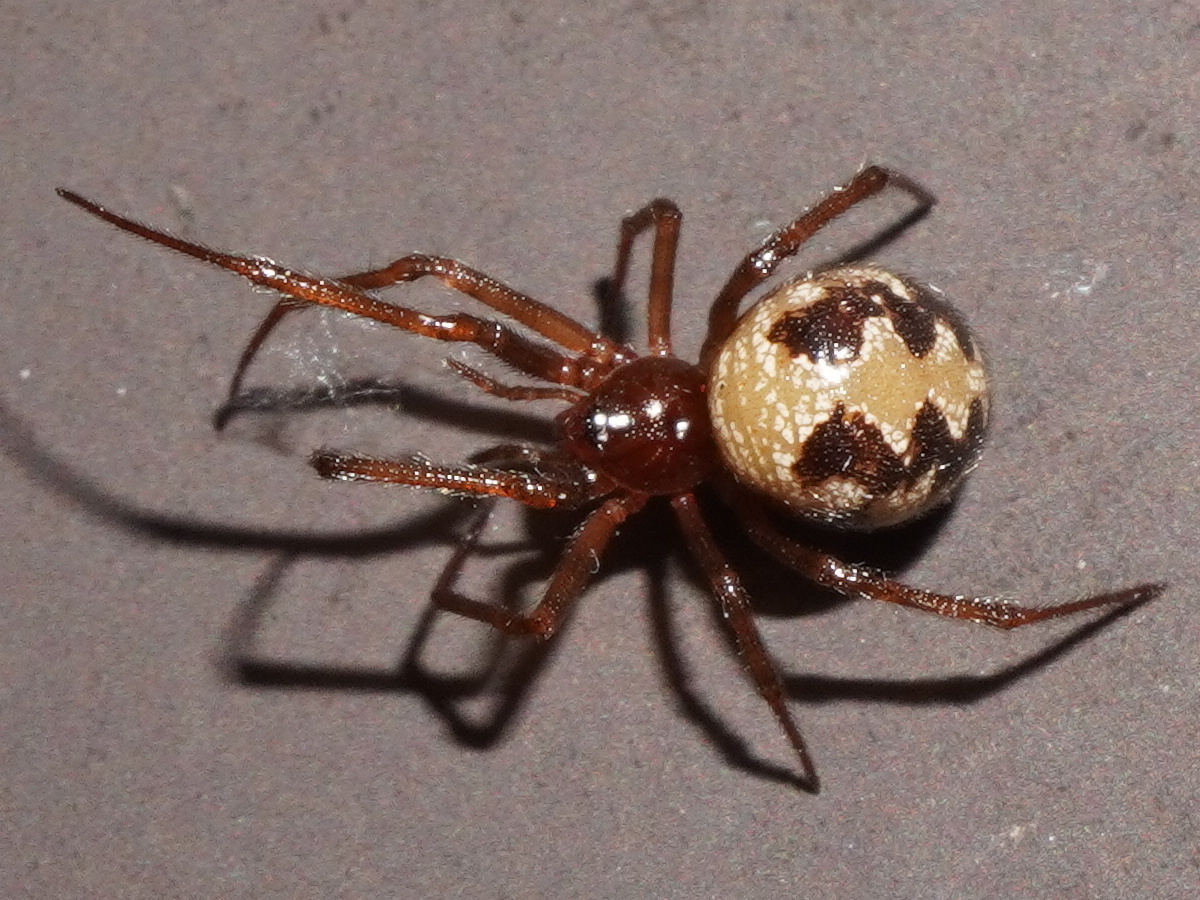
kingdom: Animalia
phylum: Arthropoda
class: Arachnida
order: Araneae
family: Theridiidae
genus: Steatoda
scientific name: Steatoda triangulosa
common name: Triangulate bud spider
